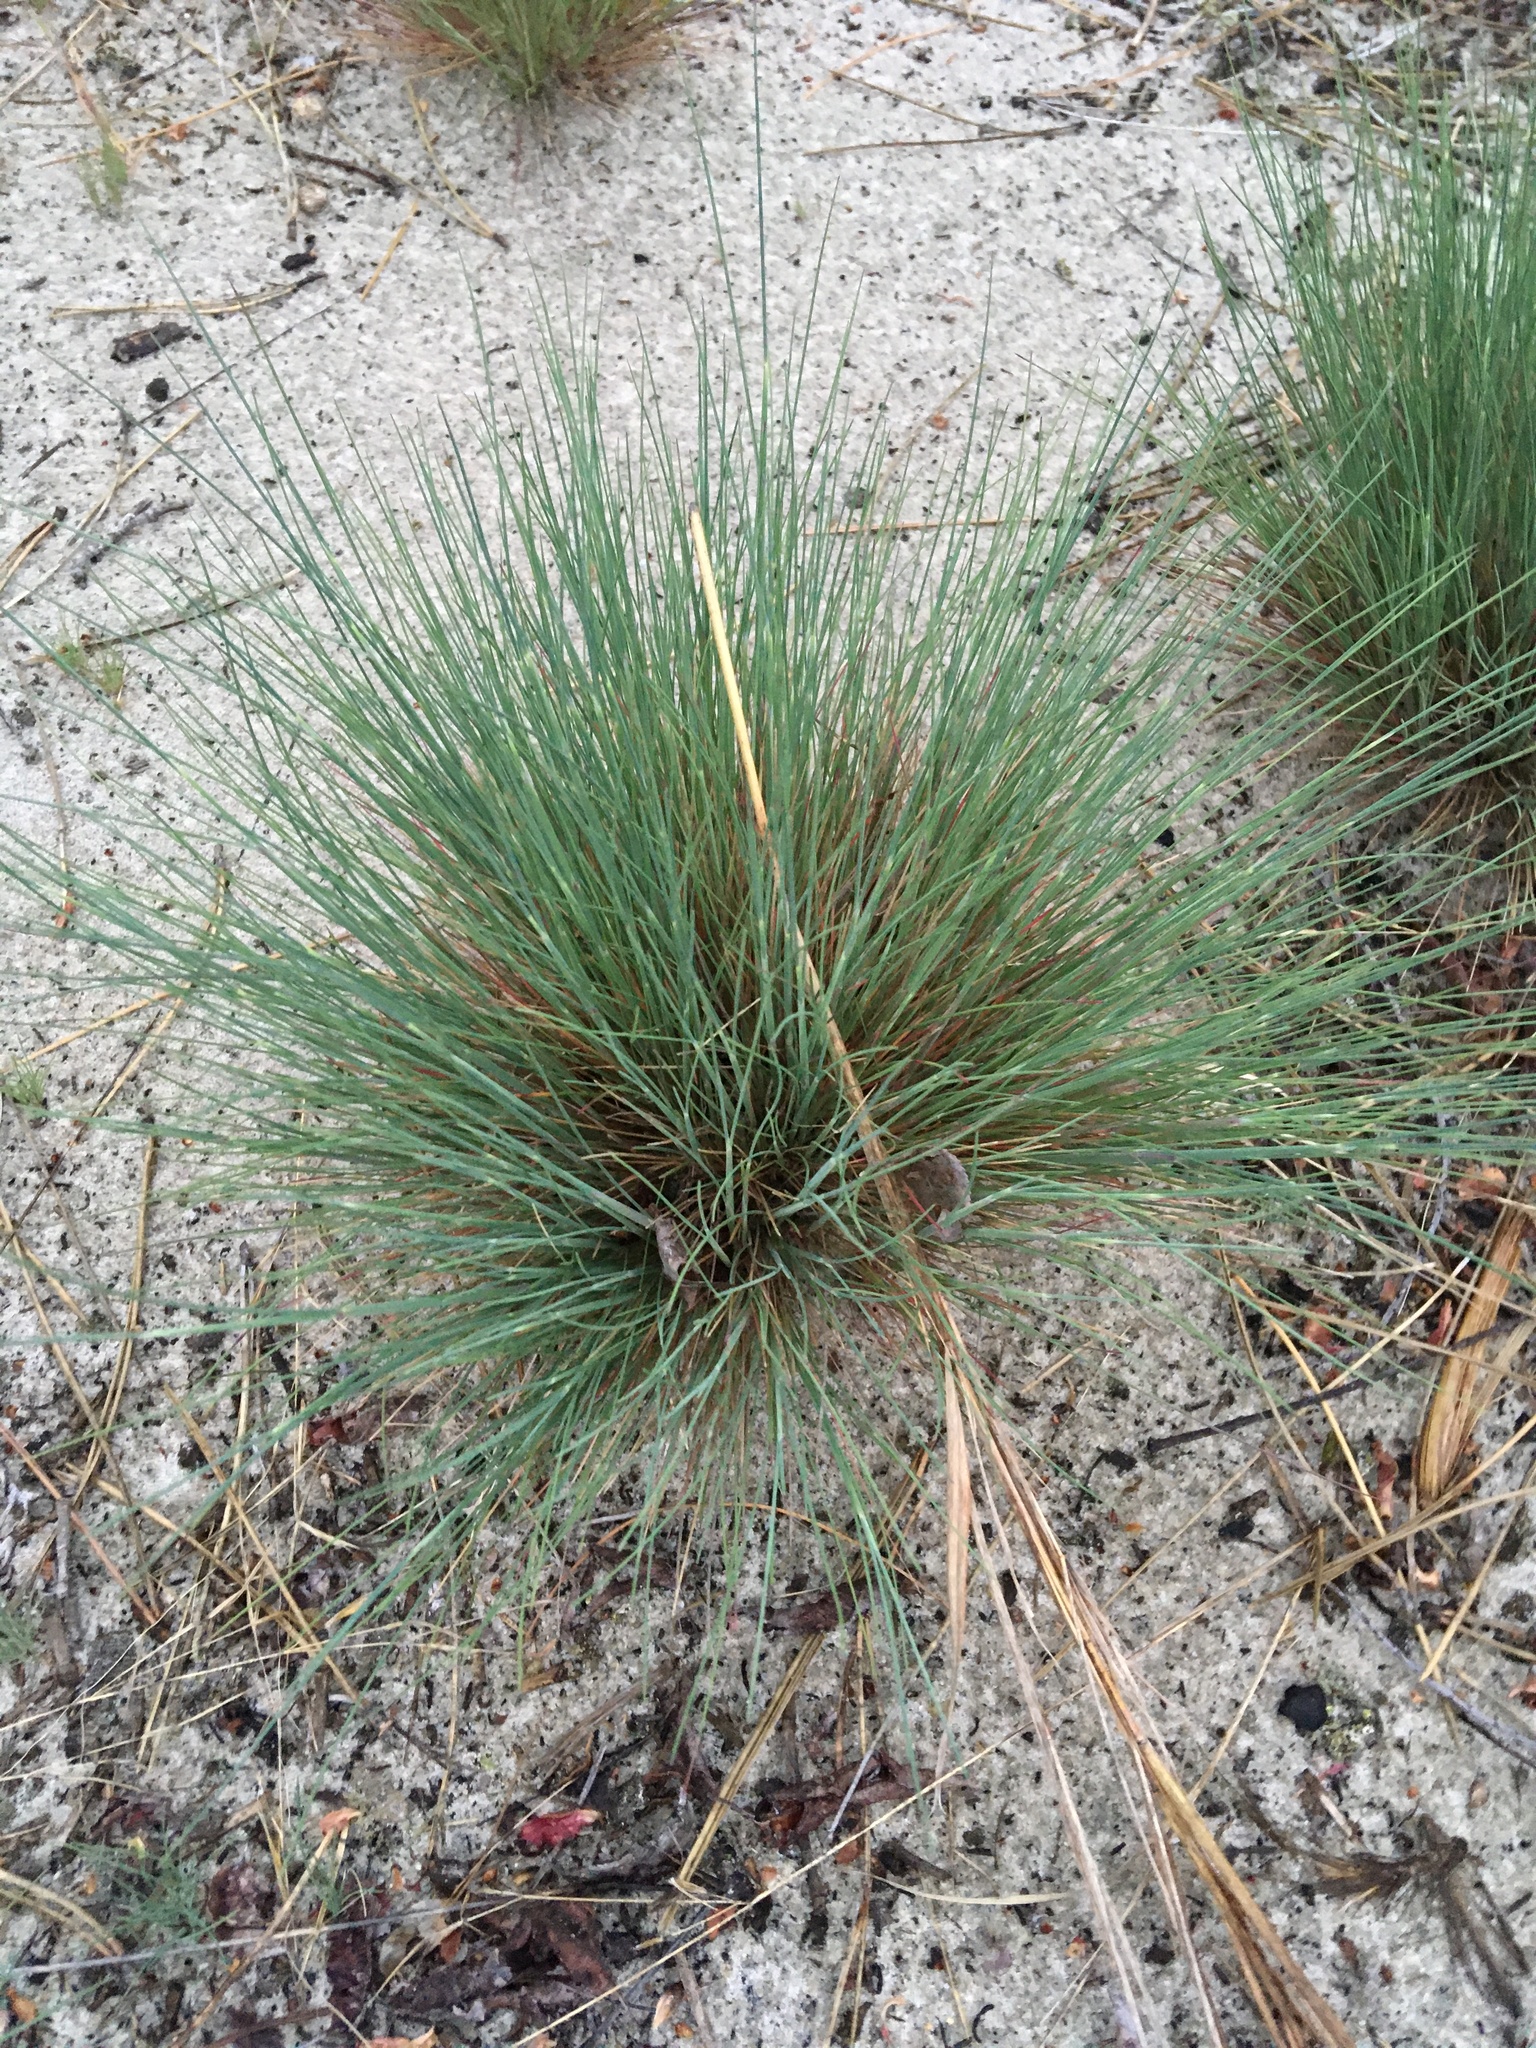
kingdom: Plantae
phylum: Tracheophyta
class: Liliopsida
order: Poales
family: Poaceae
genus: Corynephorus
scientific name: Corynephorus canescens
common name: Grey hair-grass
